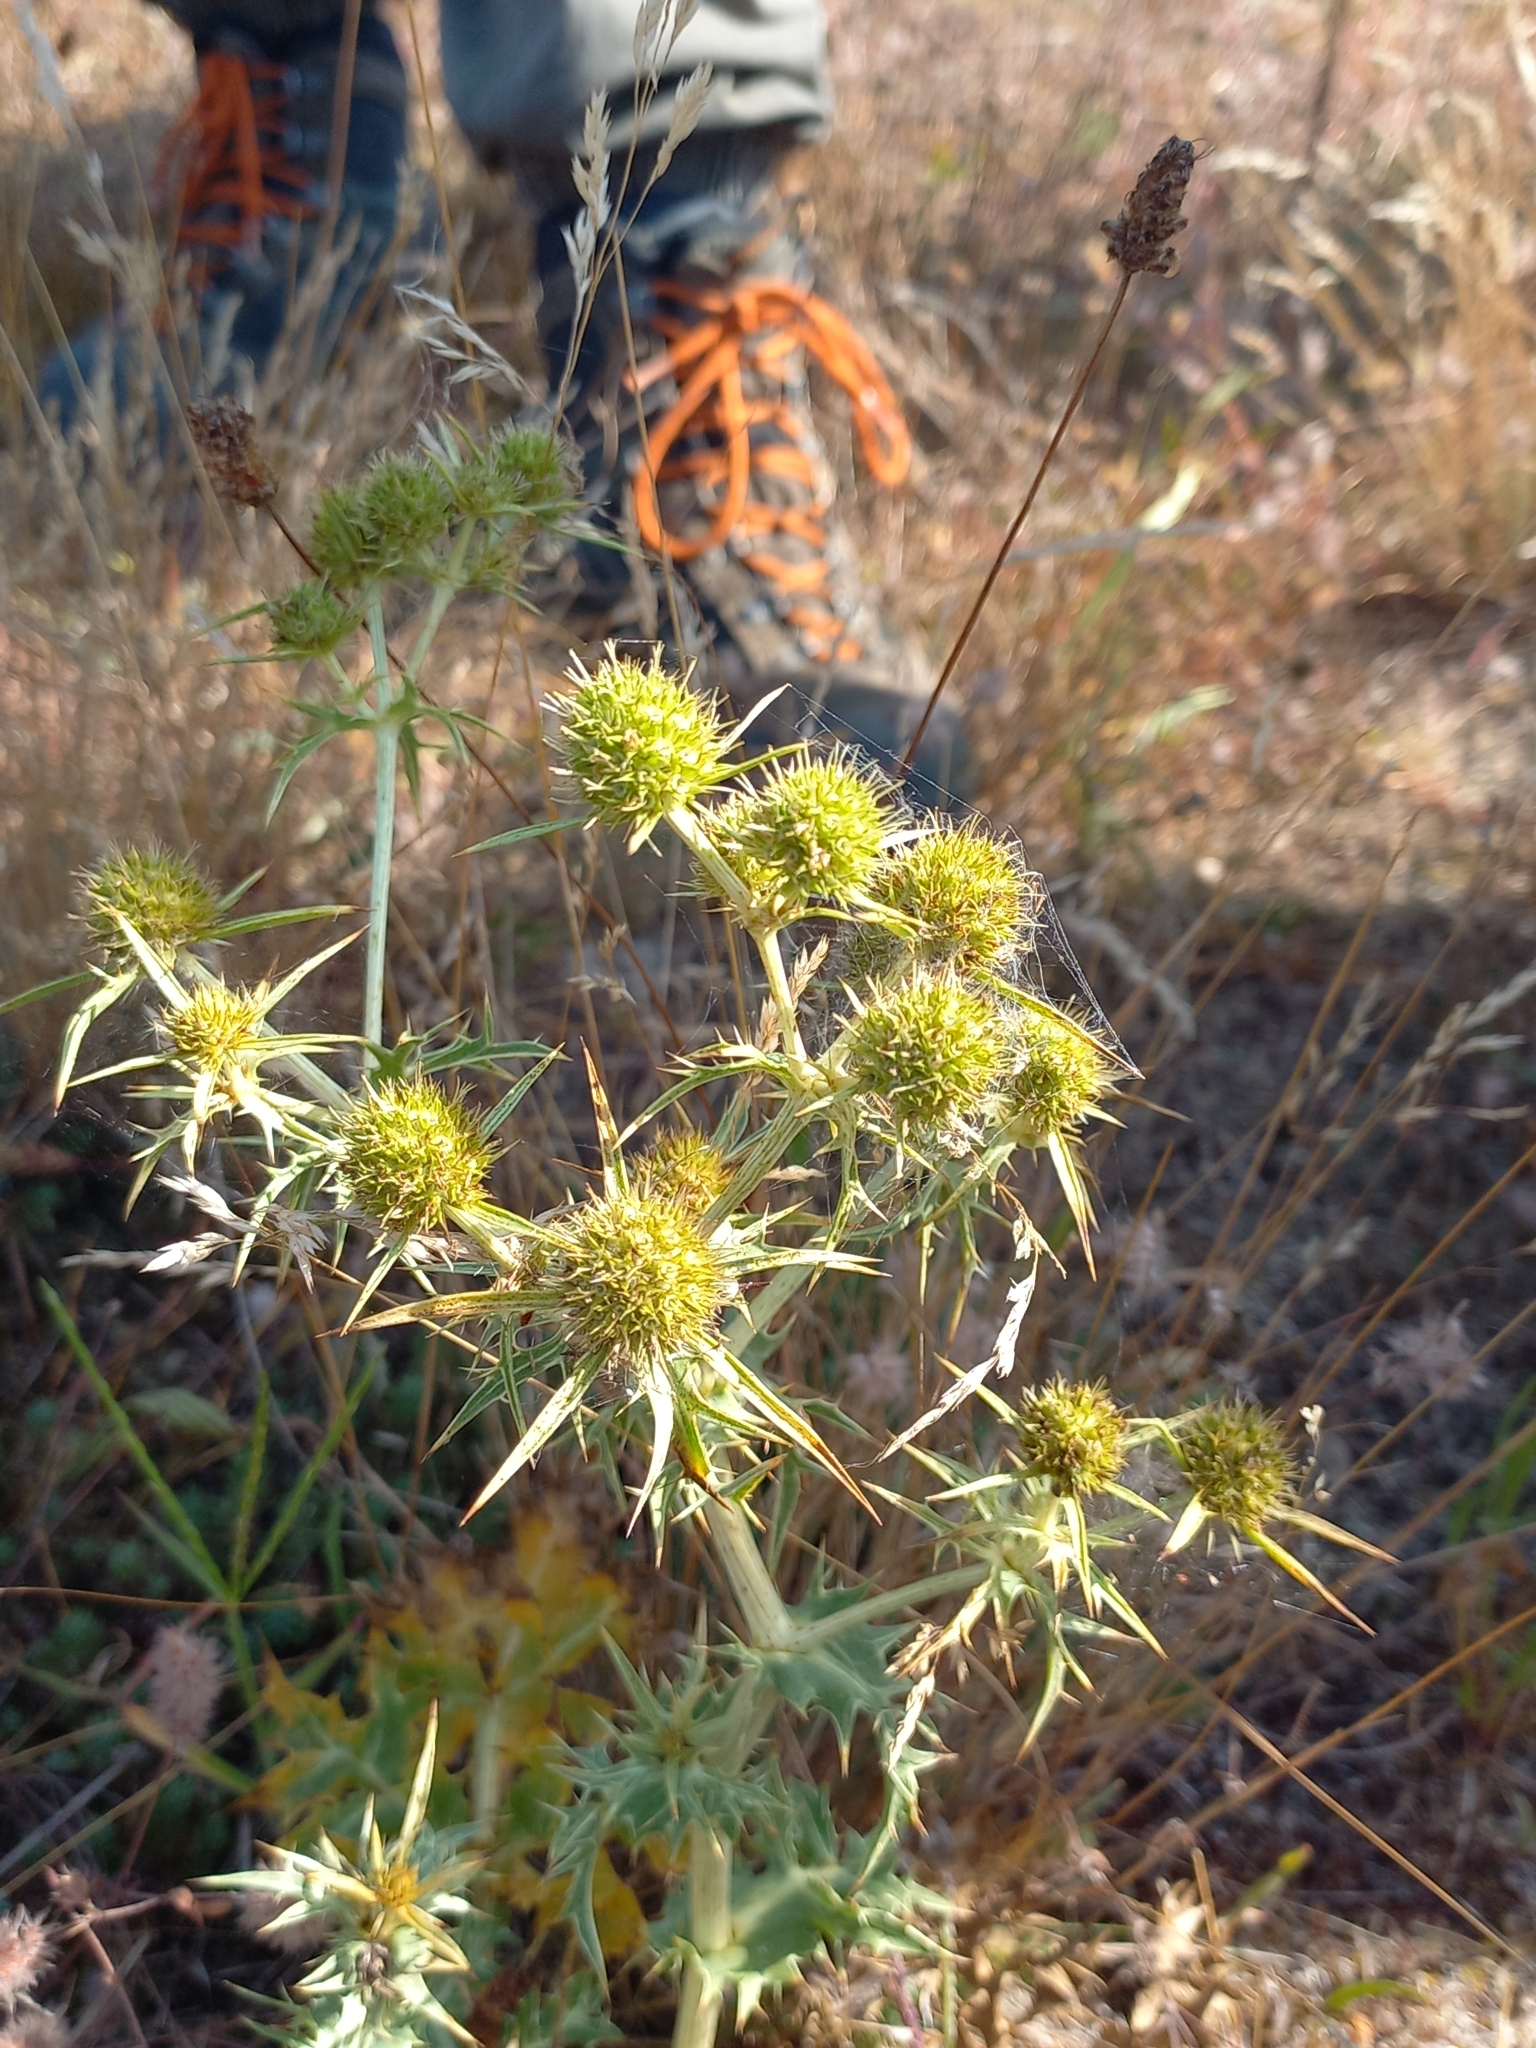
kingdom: Plantae
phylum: Tracheophyta
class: Magnoliopsida
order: Apiales
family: Apiaceae
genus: Eryngium
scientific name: Eryngium campestre
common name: Field eryngo
